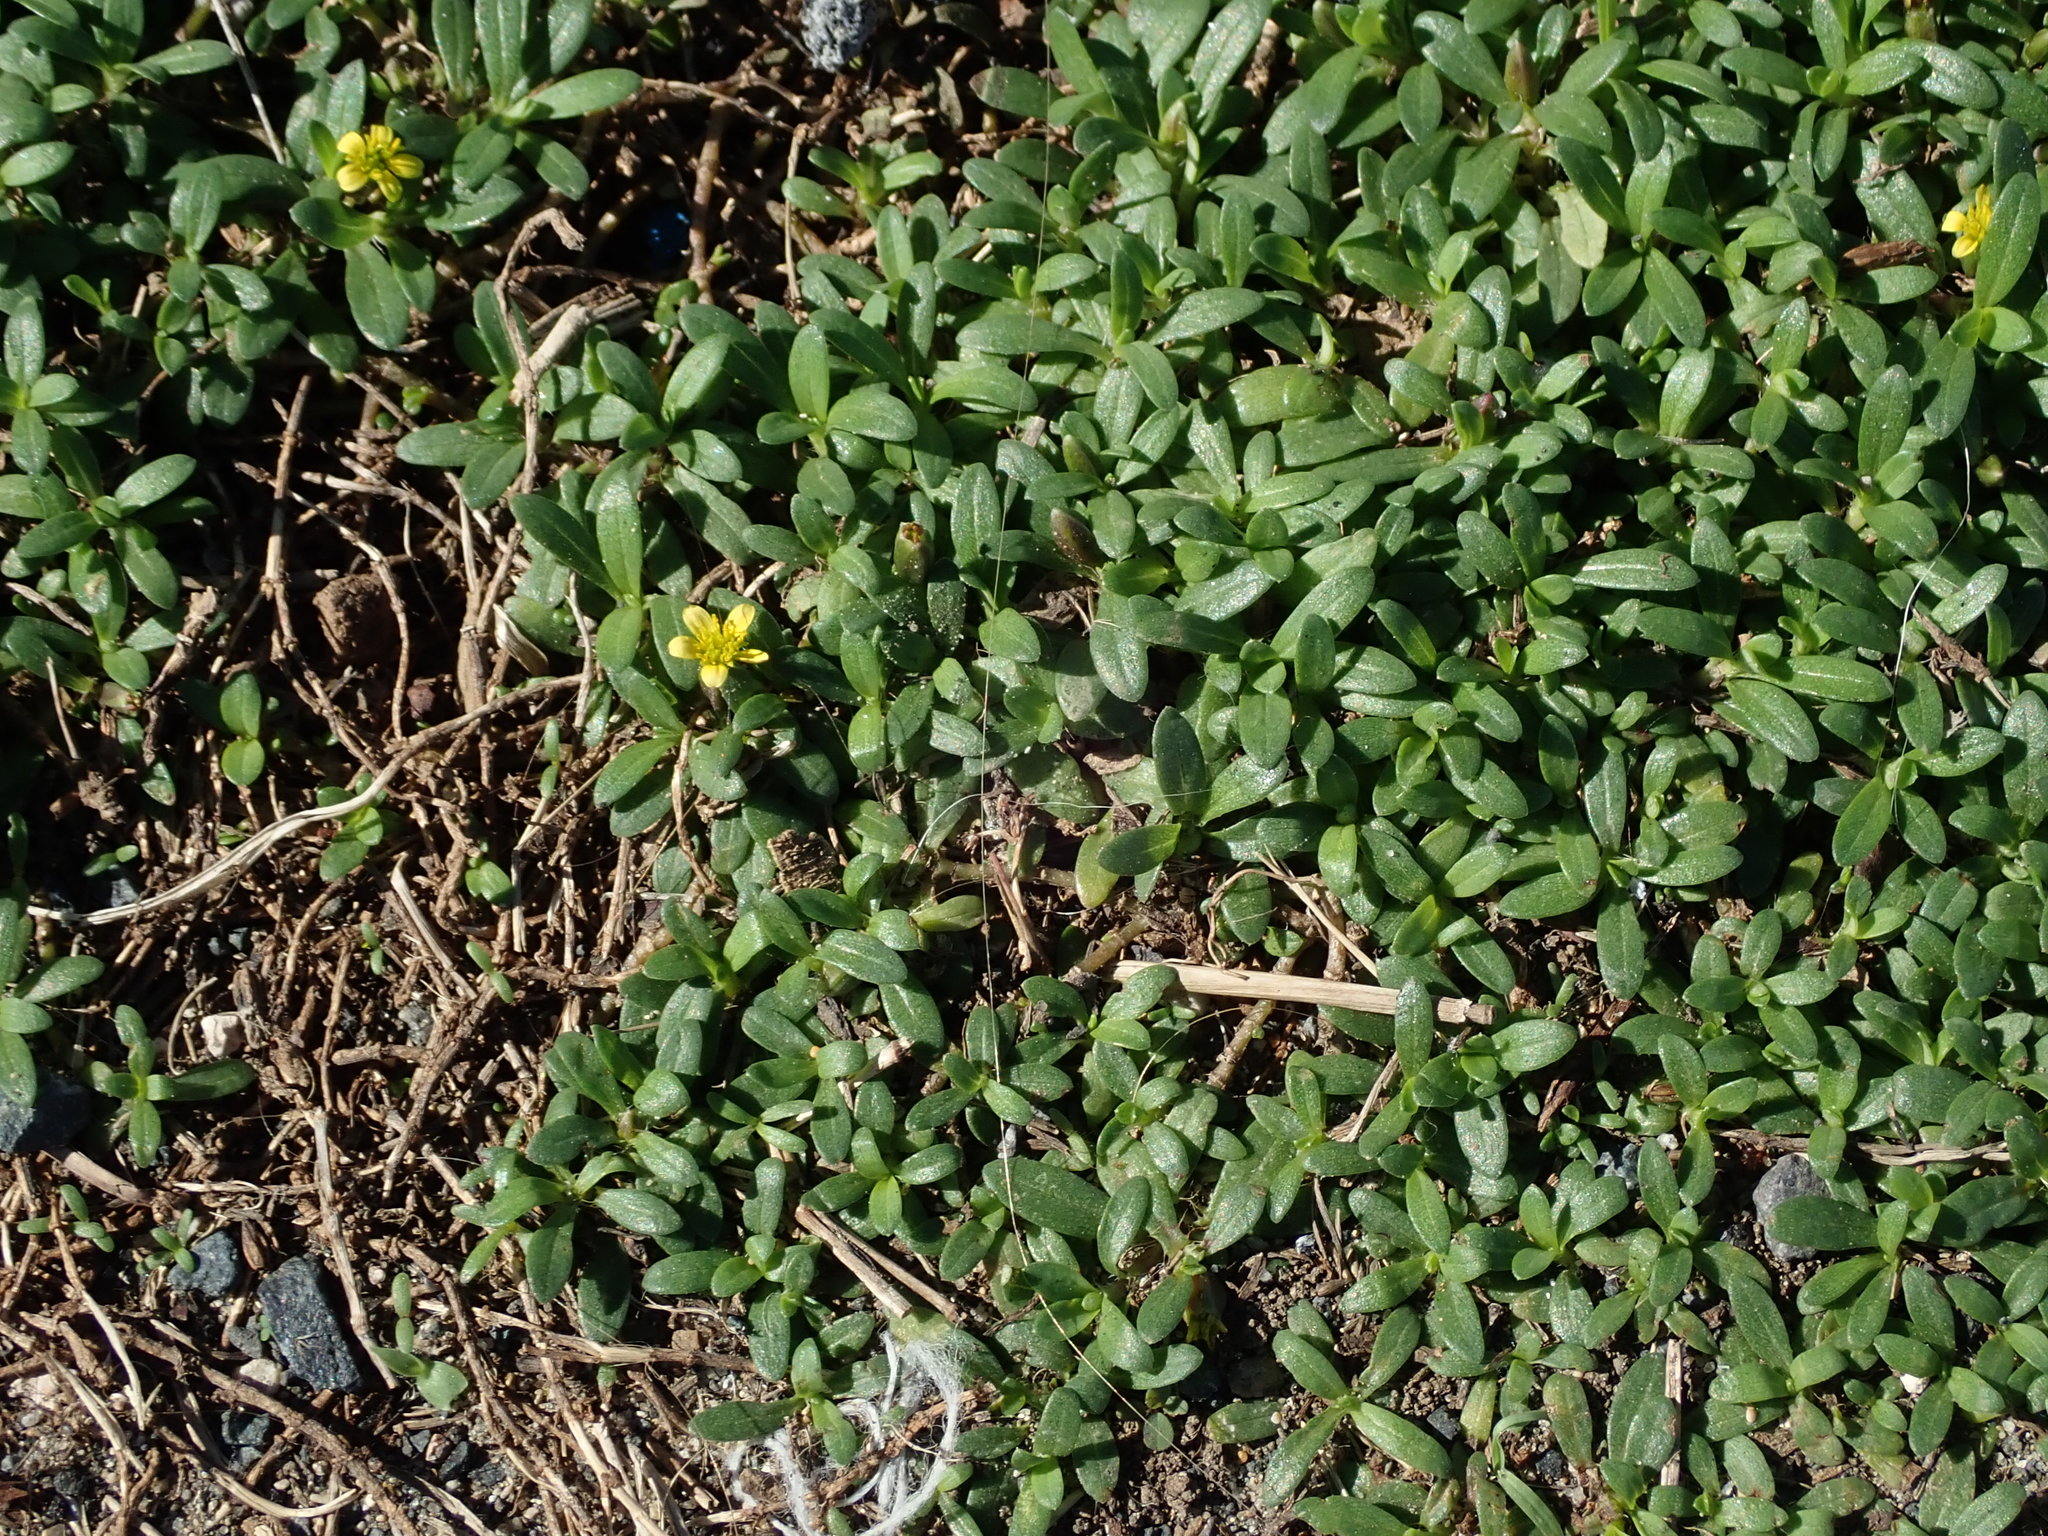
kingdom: Plantae
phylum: Tracheophyta
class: Magnoliopsida
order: Asterales
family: Asteraceae
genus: Pectis
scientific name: Pectis humifusa
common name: Yerba de san juan
